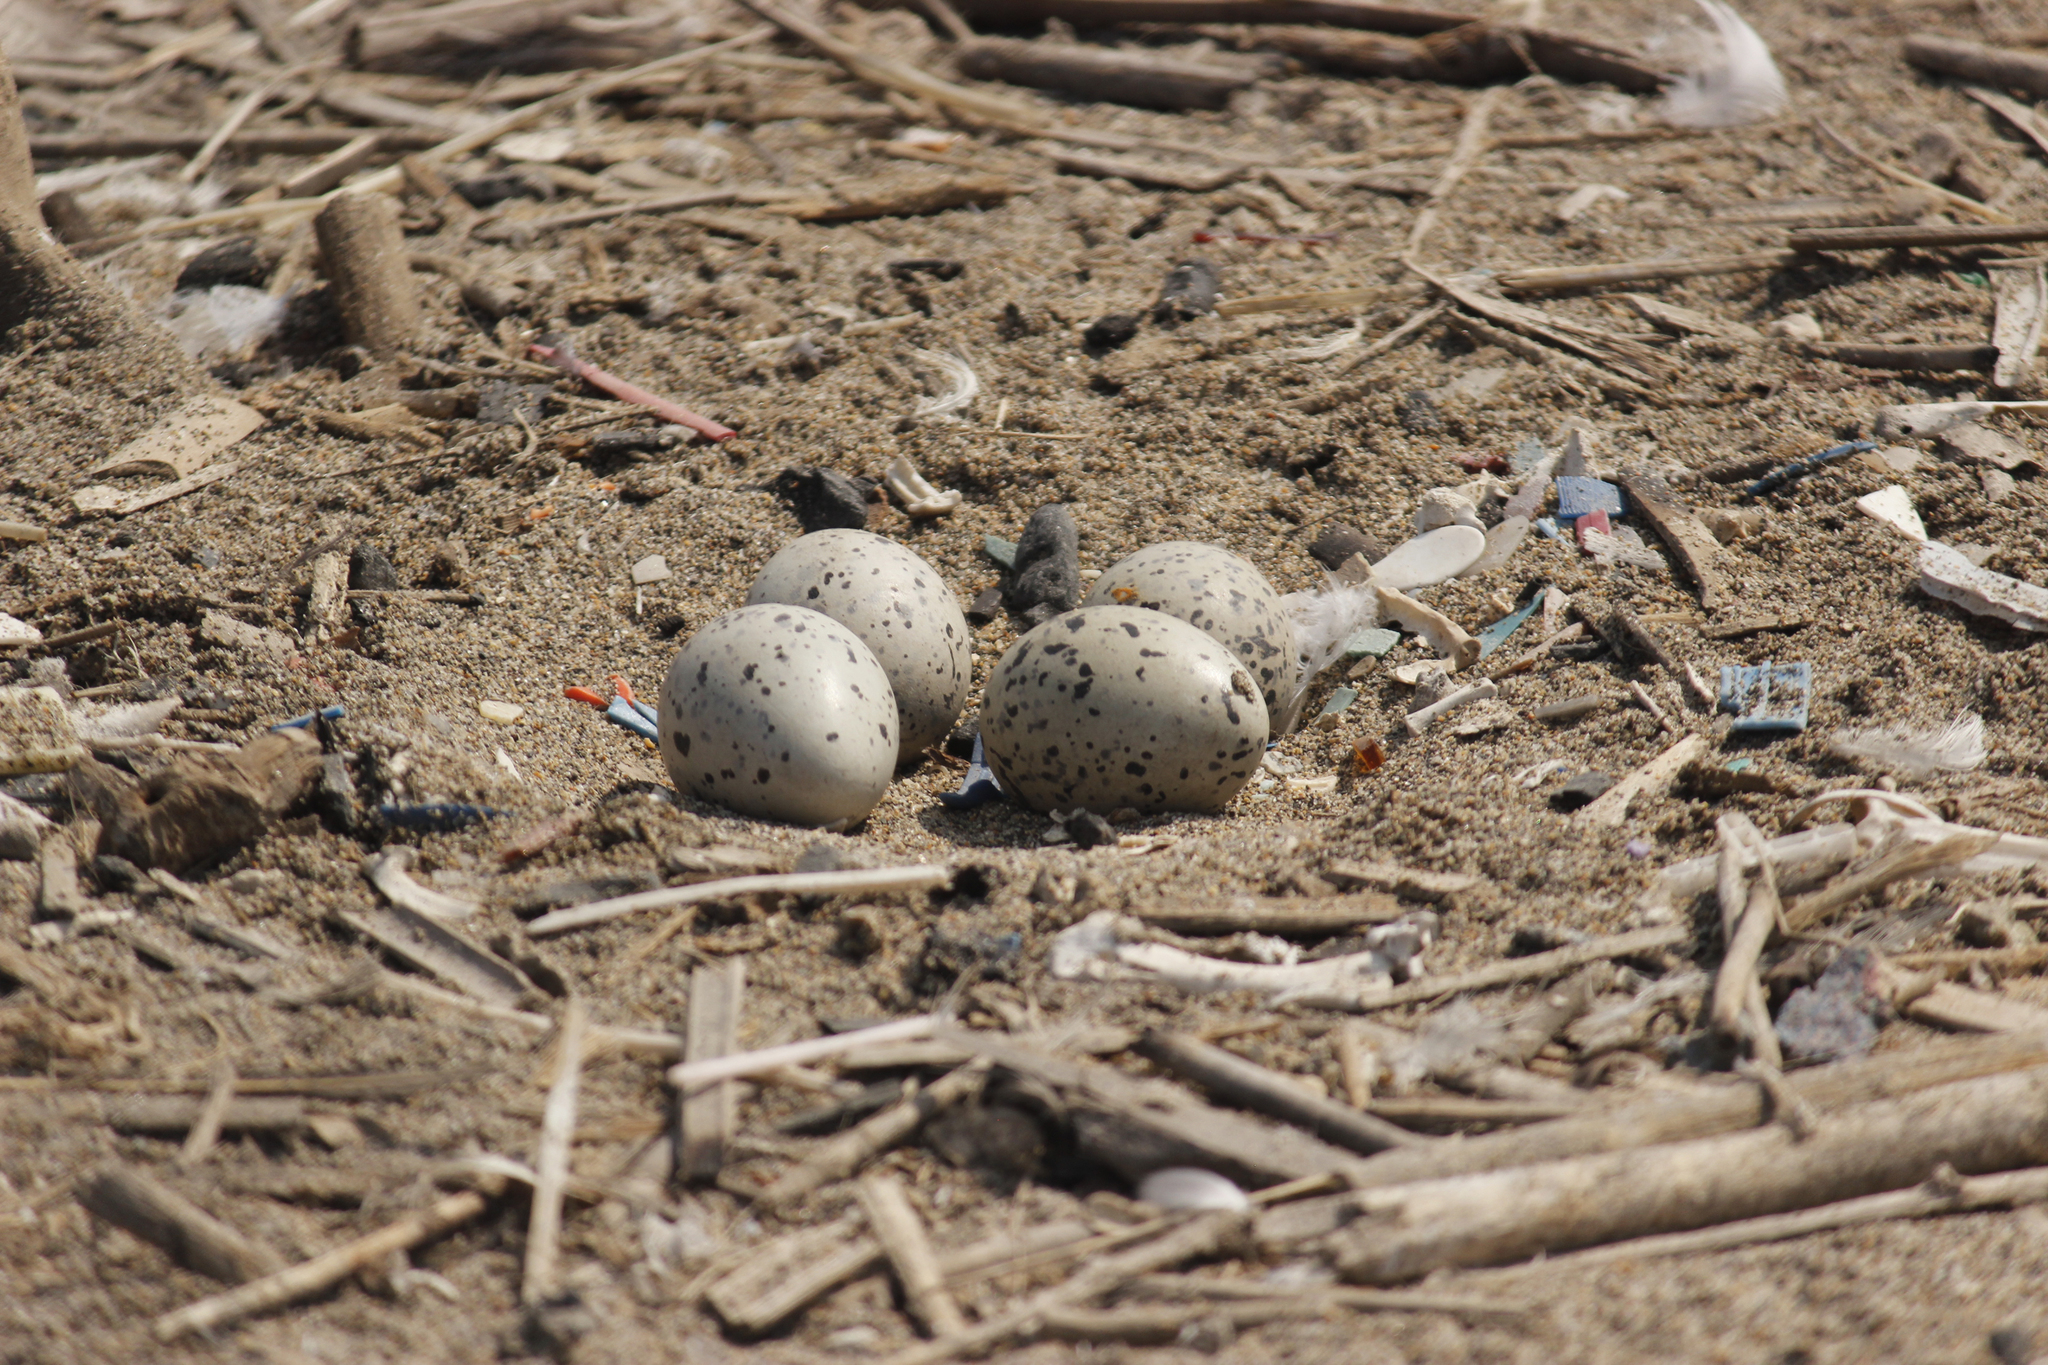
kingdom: Animalia
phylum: Chordata
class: Aves
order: Charadriiformes
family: Haematopodidae
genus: Haematopus
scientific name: Haematopus palliatus
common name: American oystercatcher
